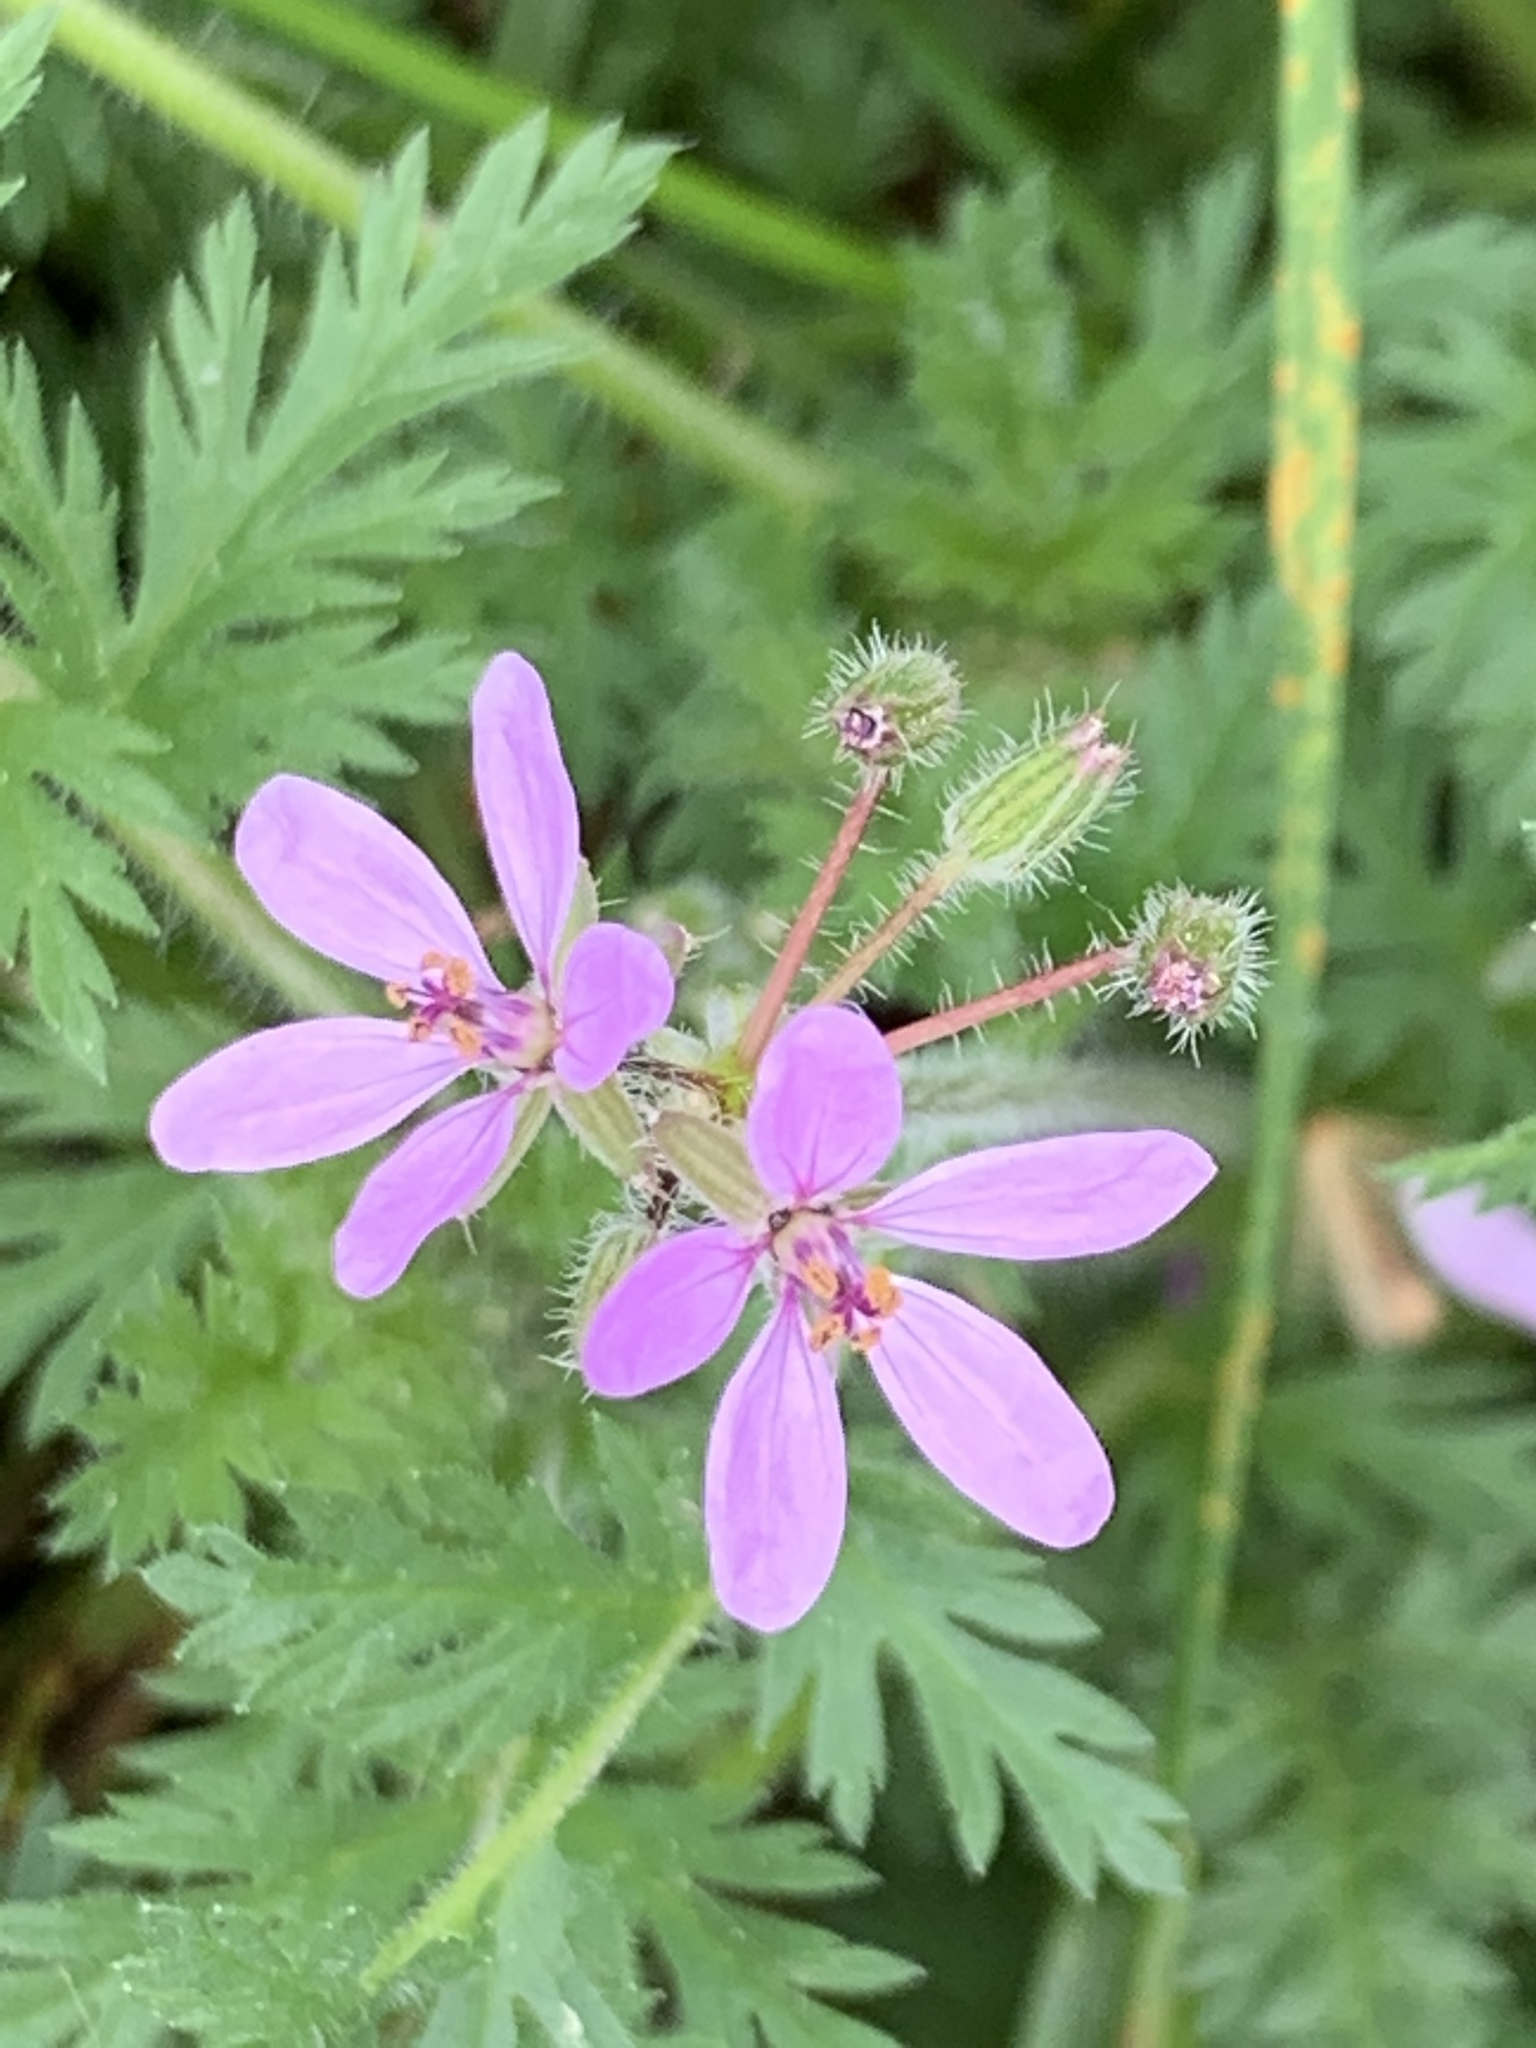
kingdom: Plantae
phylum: Tracheophyta
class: Magnoliopsida
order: Geraniales
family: Geraniaceae
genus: Erodium
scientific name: Erodium cicutarium
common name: Common stork's-bill
